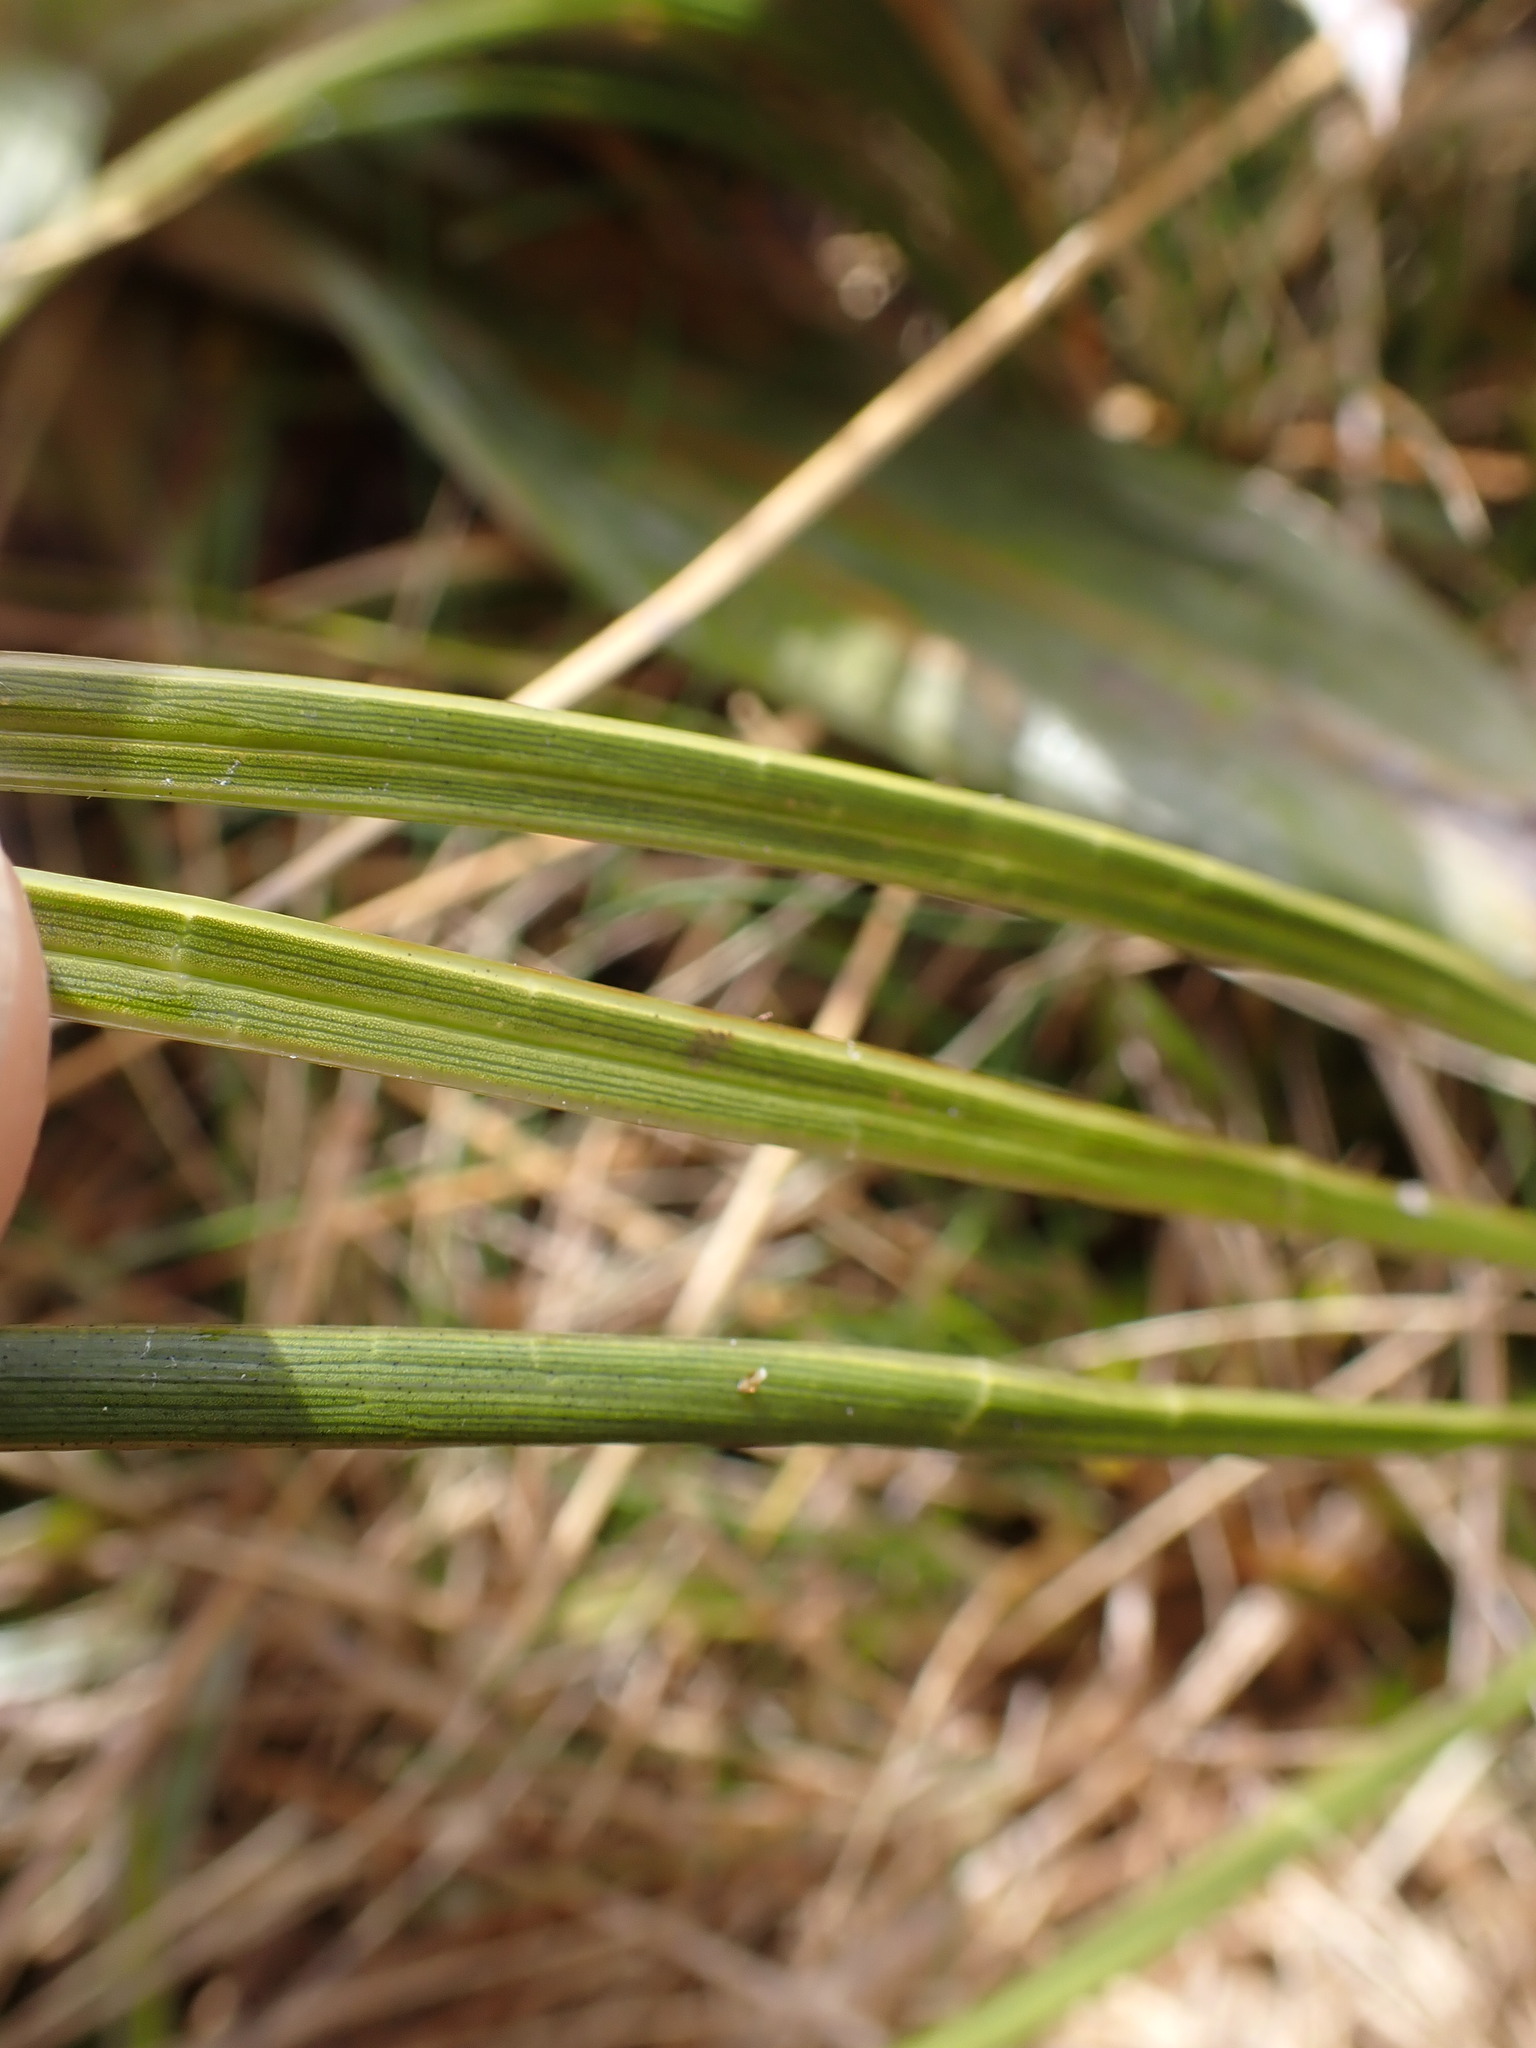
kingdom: Plantae
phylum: Tracheophyta
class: Magnoliopsida
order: Apiales
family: Apiaceae
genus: Aciphylla
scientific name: Aciphylla lyallii
